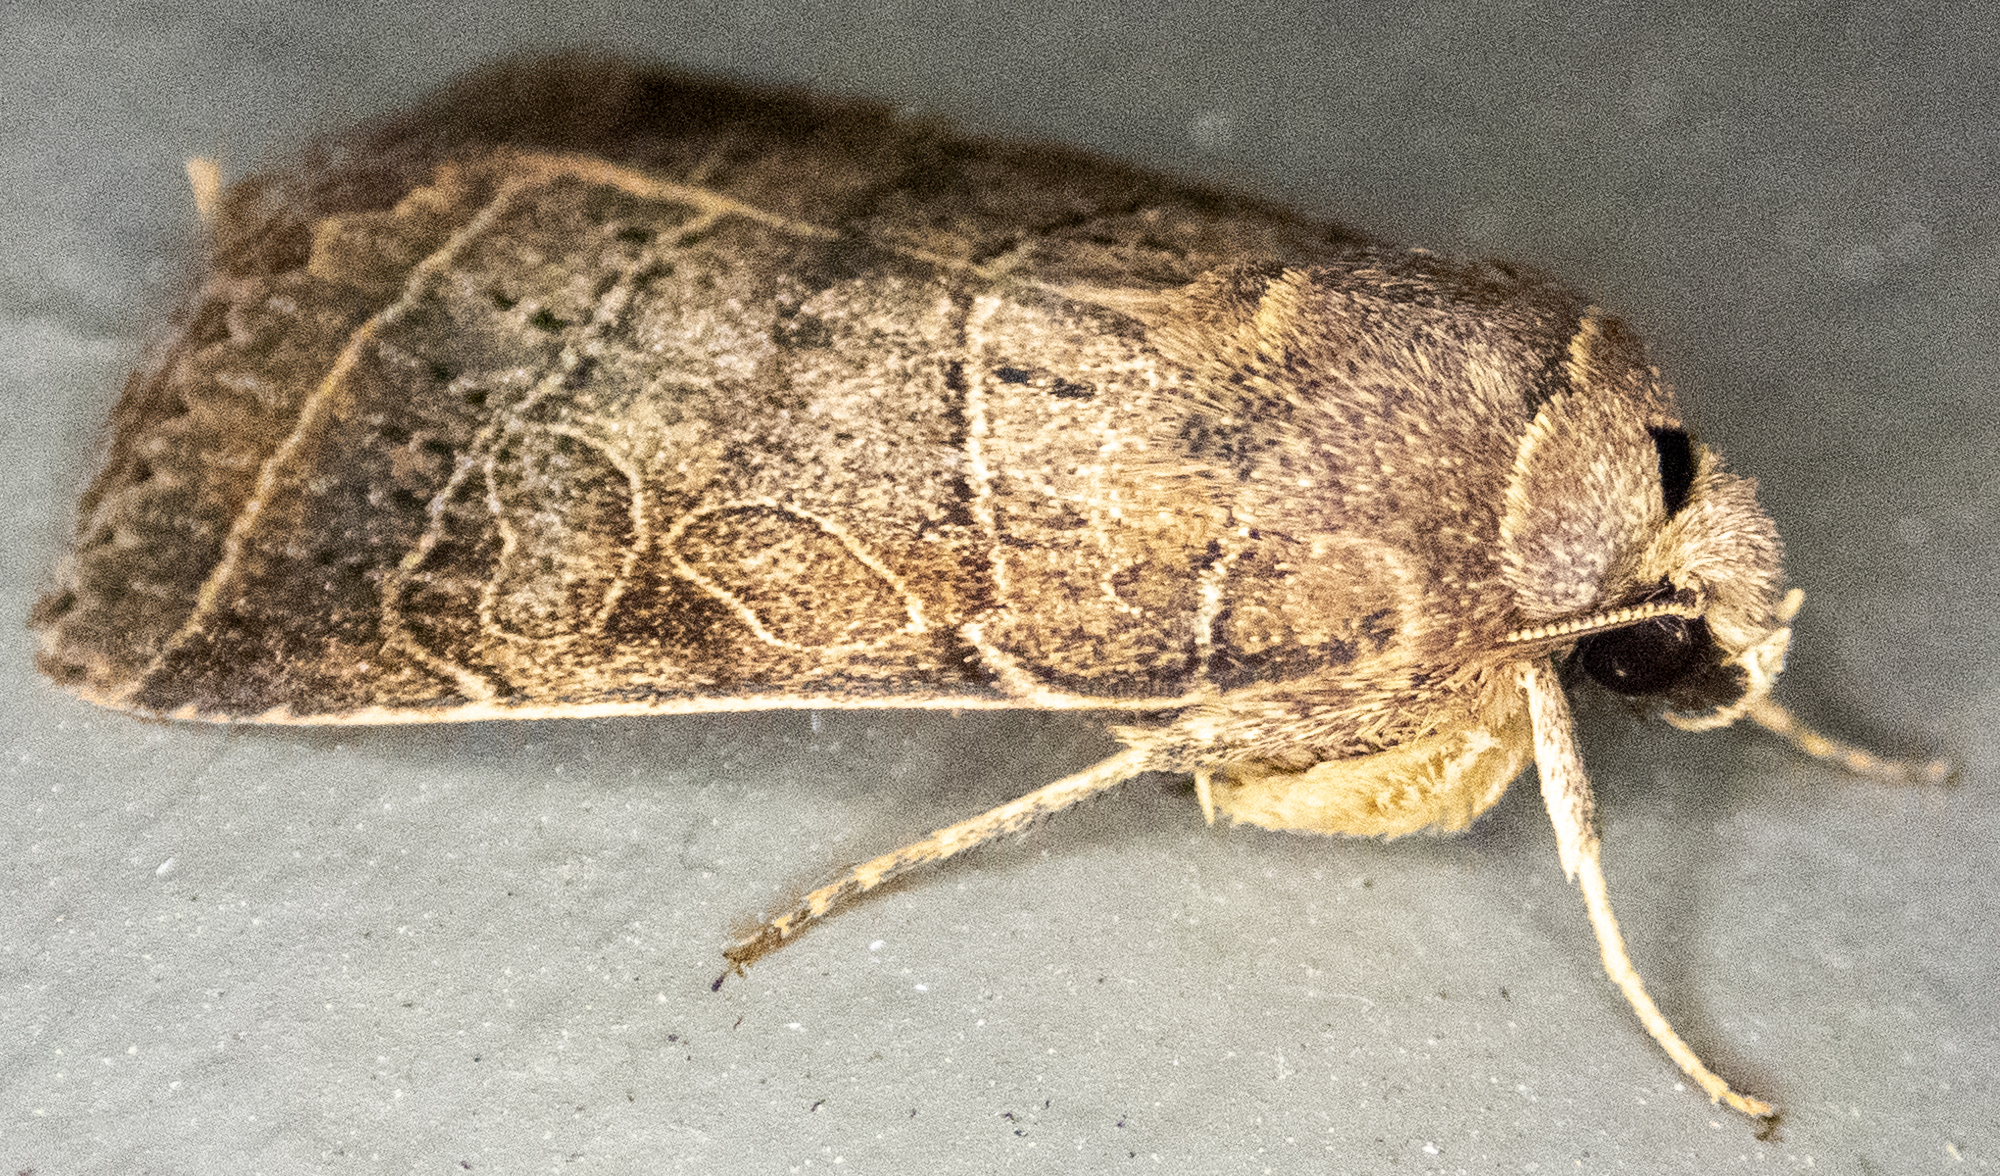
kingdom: Animalia
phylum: Arthropoda
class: Insecta
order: Lepidoptera
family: Noctuidae
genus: Orthodes
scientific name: Orthodes majuscula
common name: Rustic quaker
